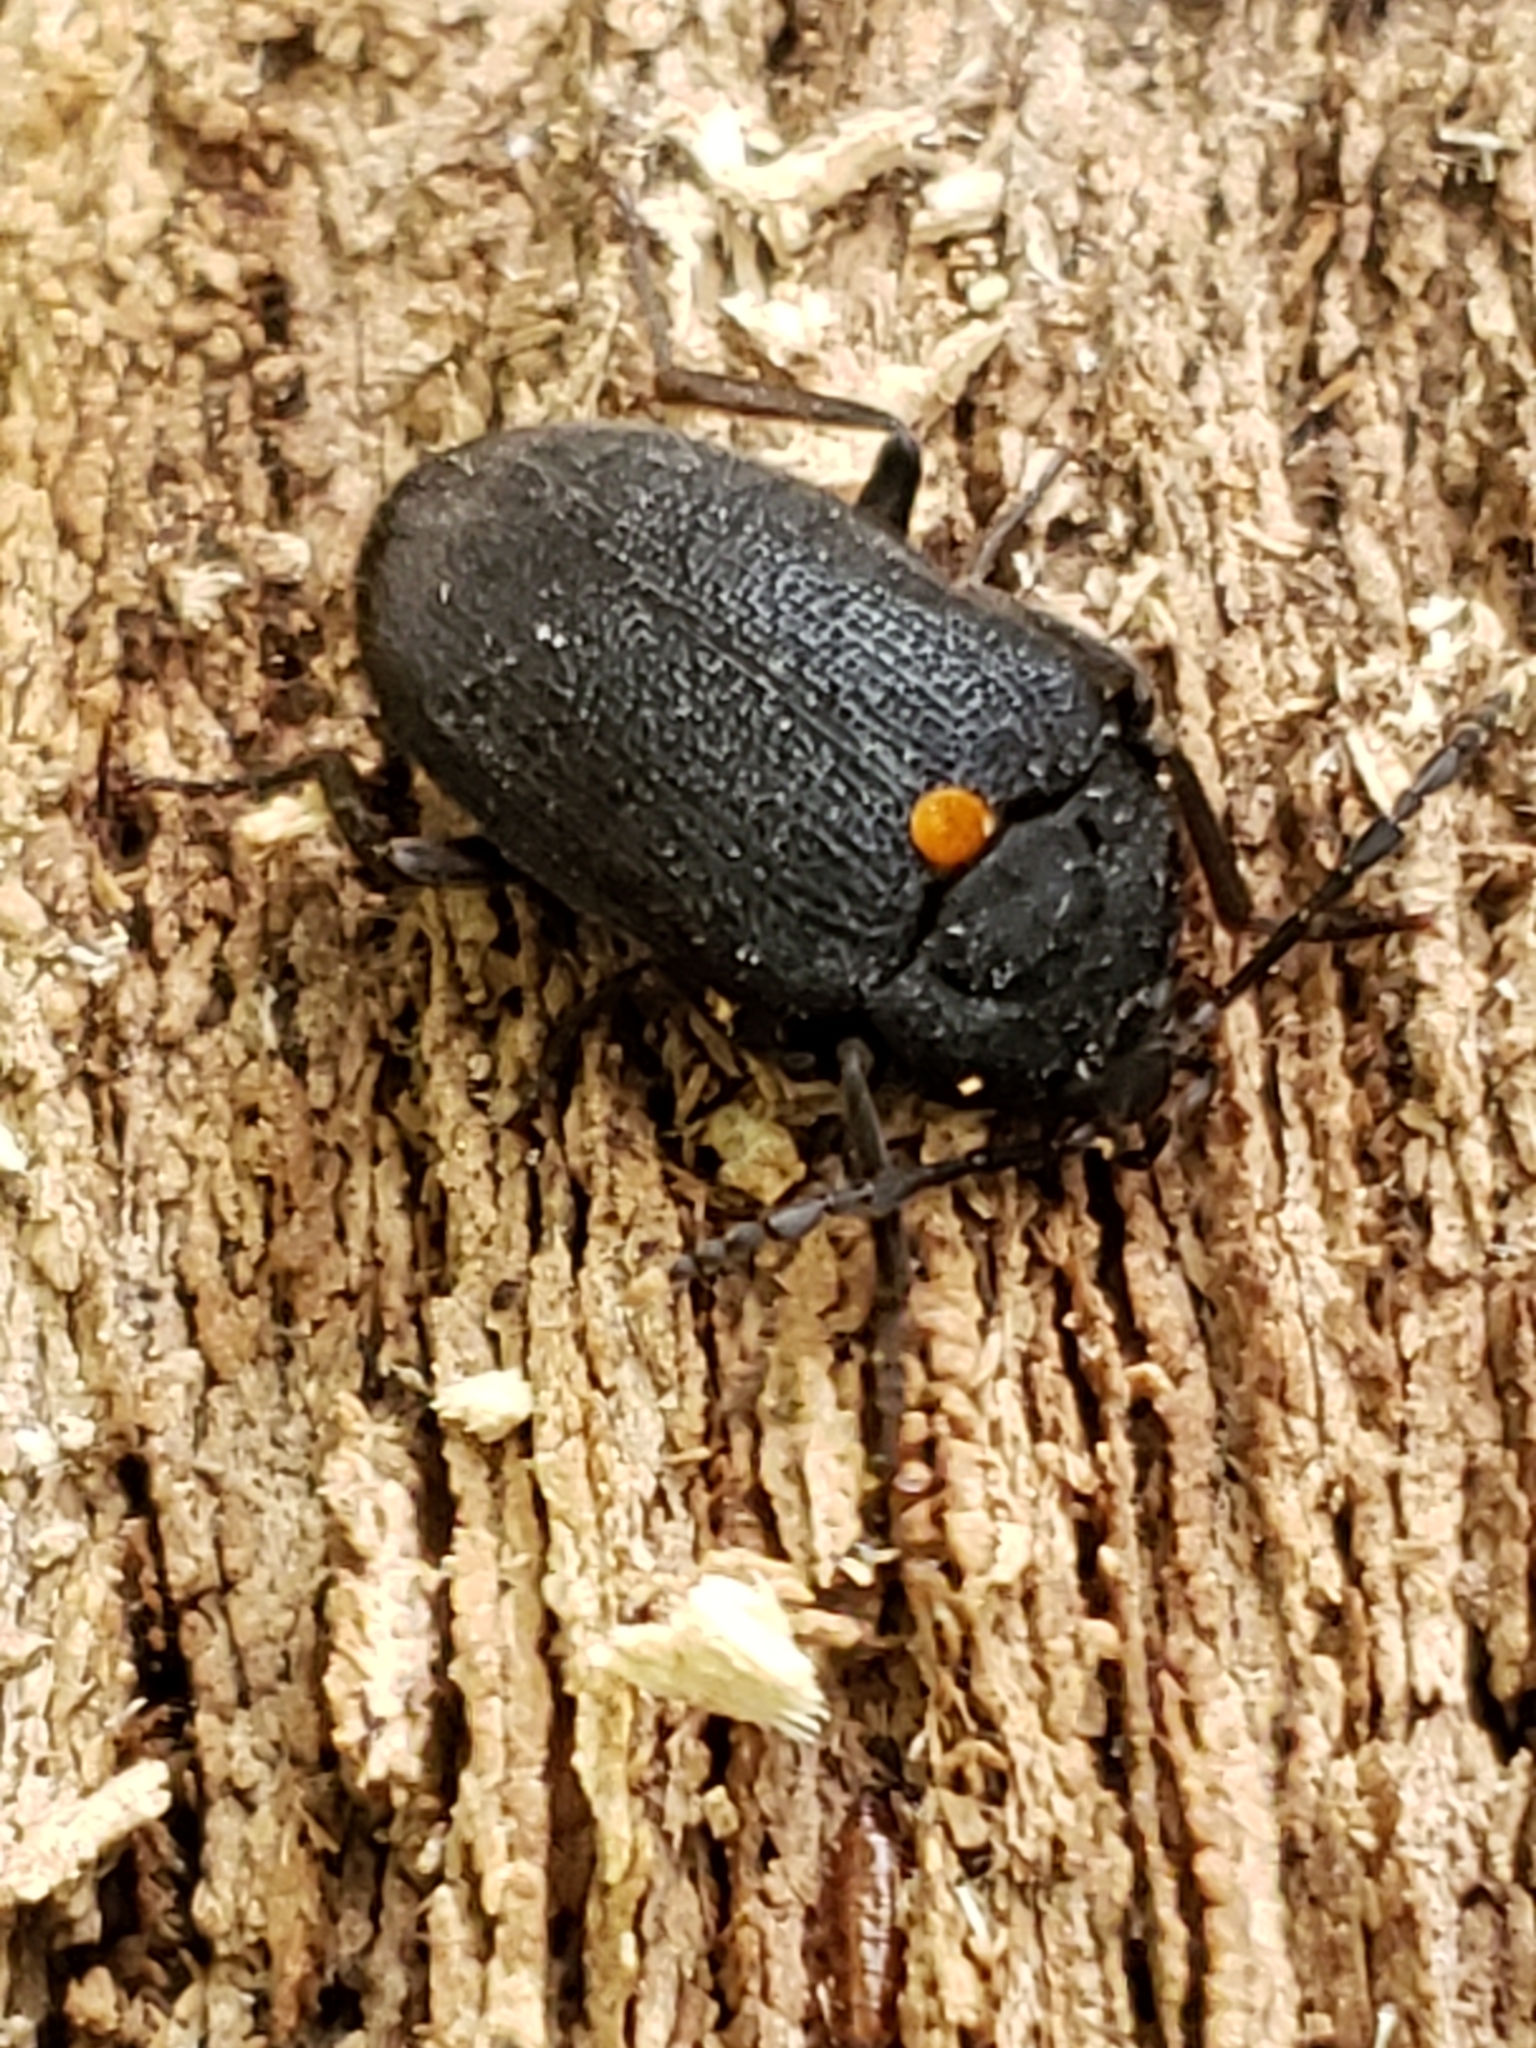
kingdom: Animalia
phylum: Arthropoda
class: Insecta
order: Coleoptera
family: Tetratomidae
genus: Penthe
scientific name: Penthe obliquata
